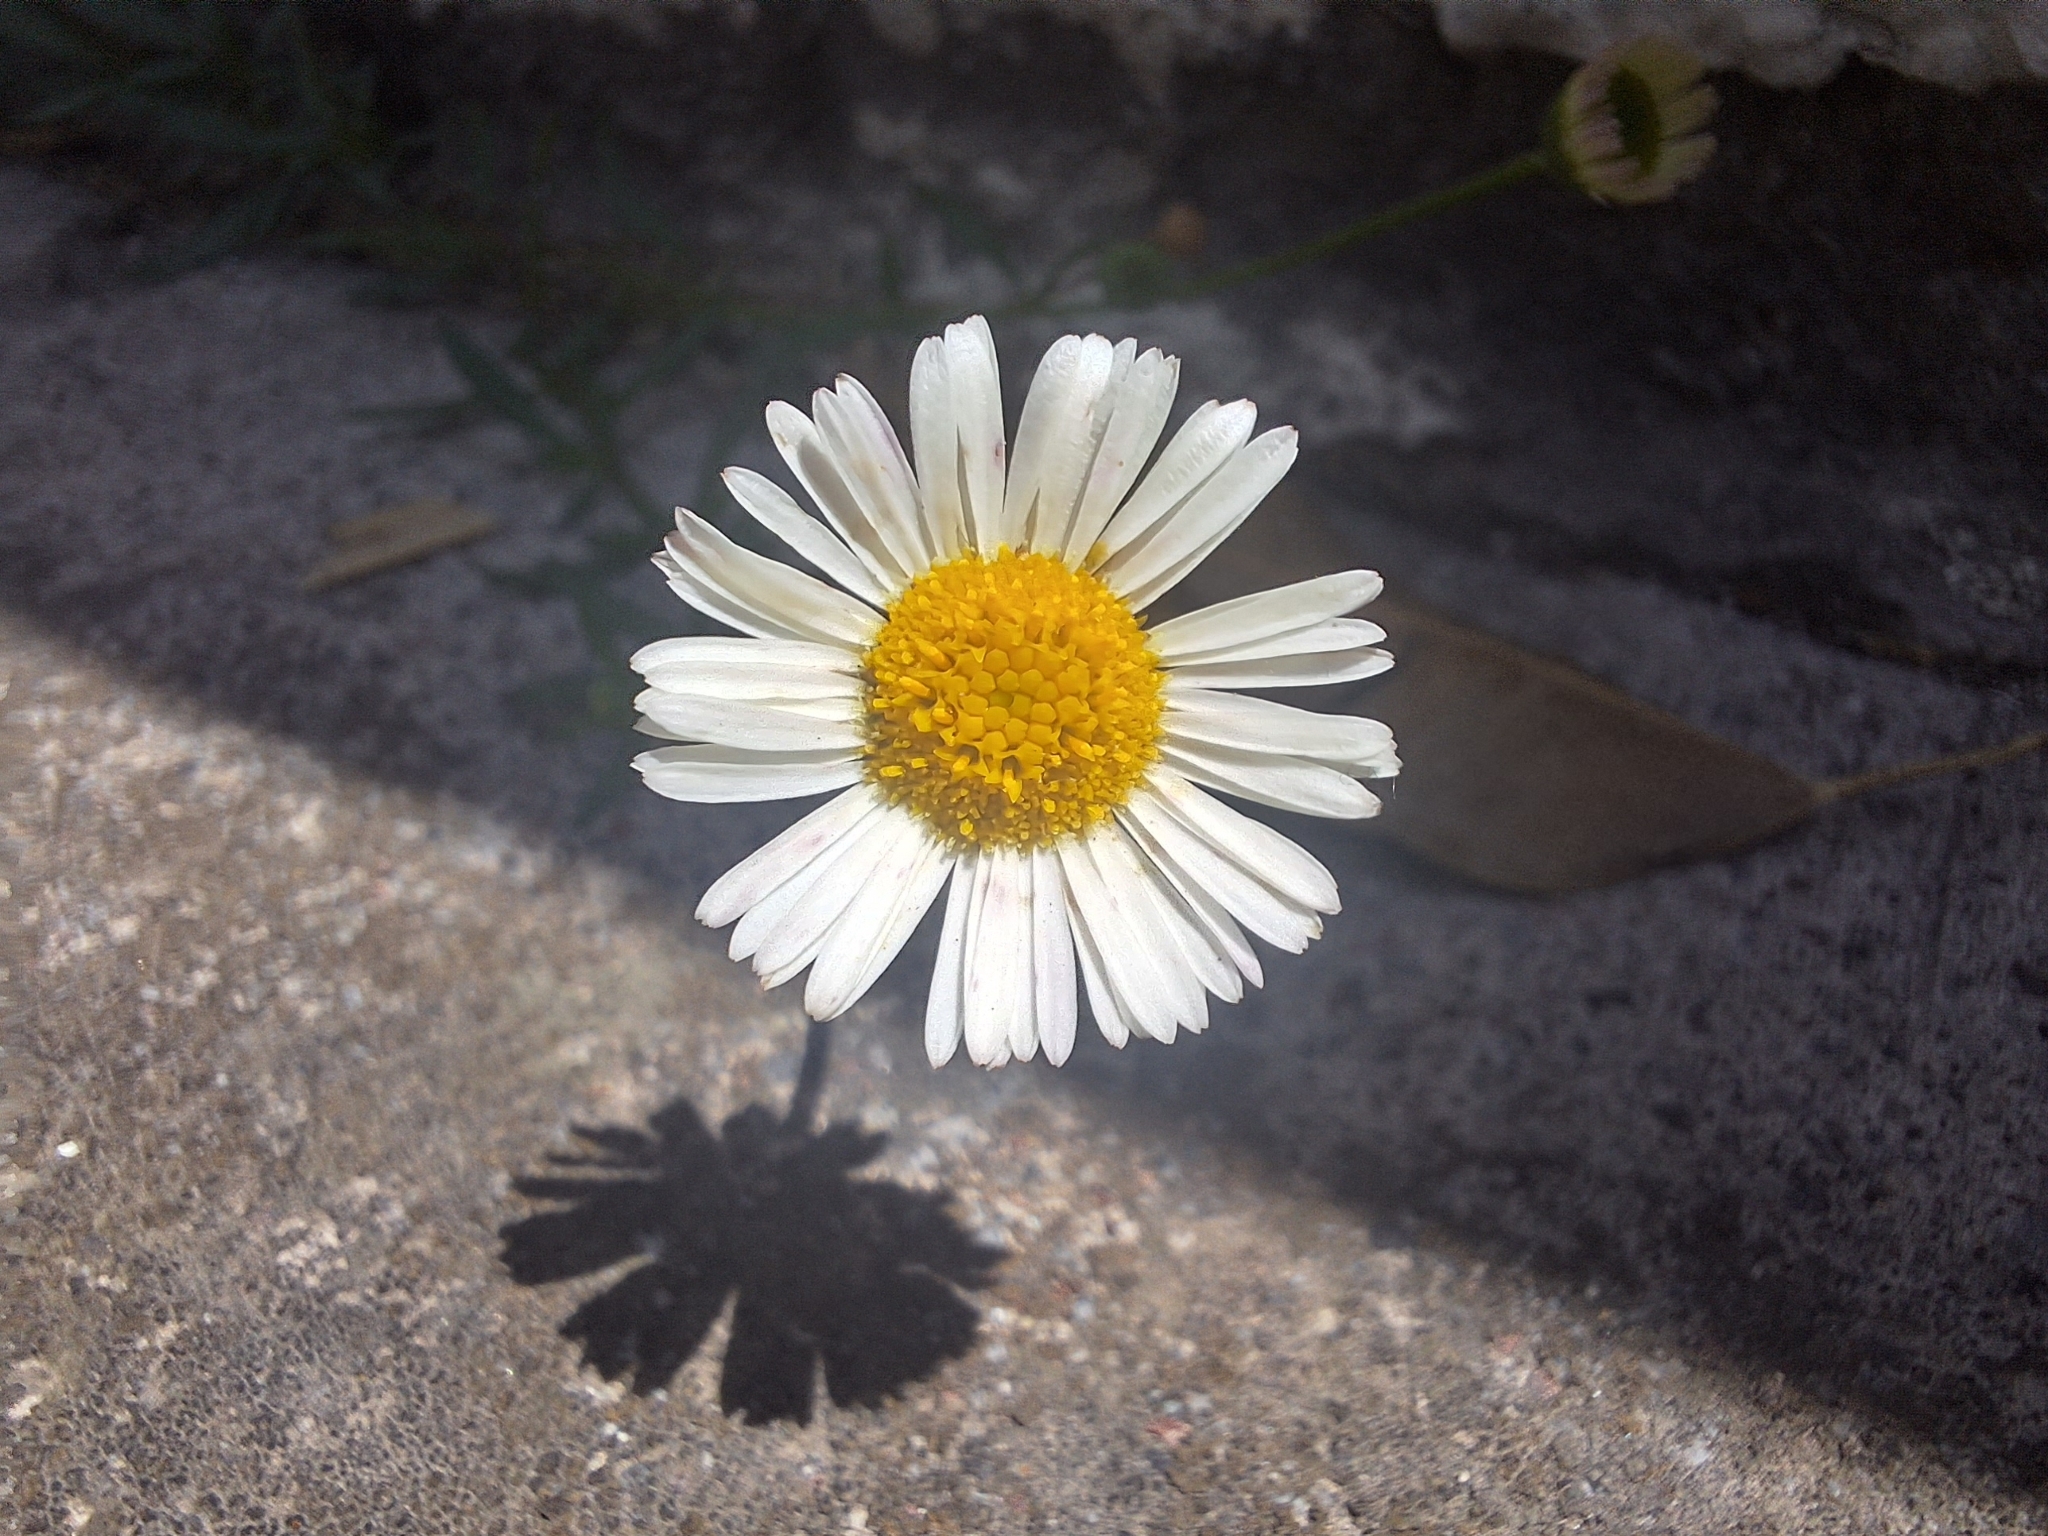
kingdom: Plantae
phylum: Tracheophyta
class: Magnoliopsida
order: Asterales
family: Asteraceae
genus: Erigeron
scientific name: Erigeron karvinskianus
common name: Mexican fleabane
